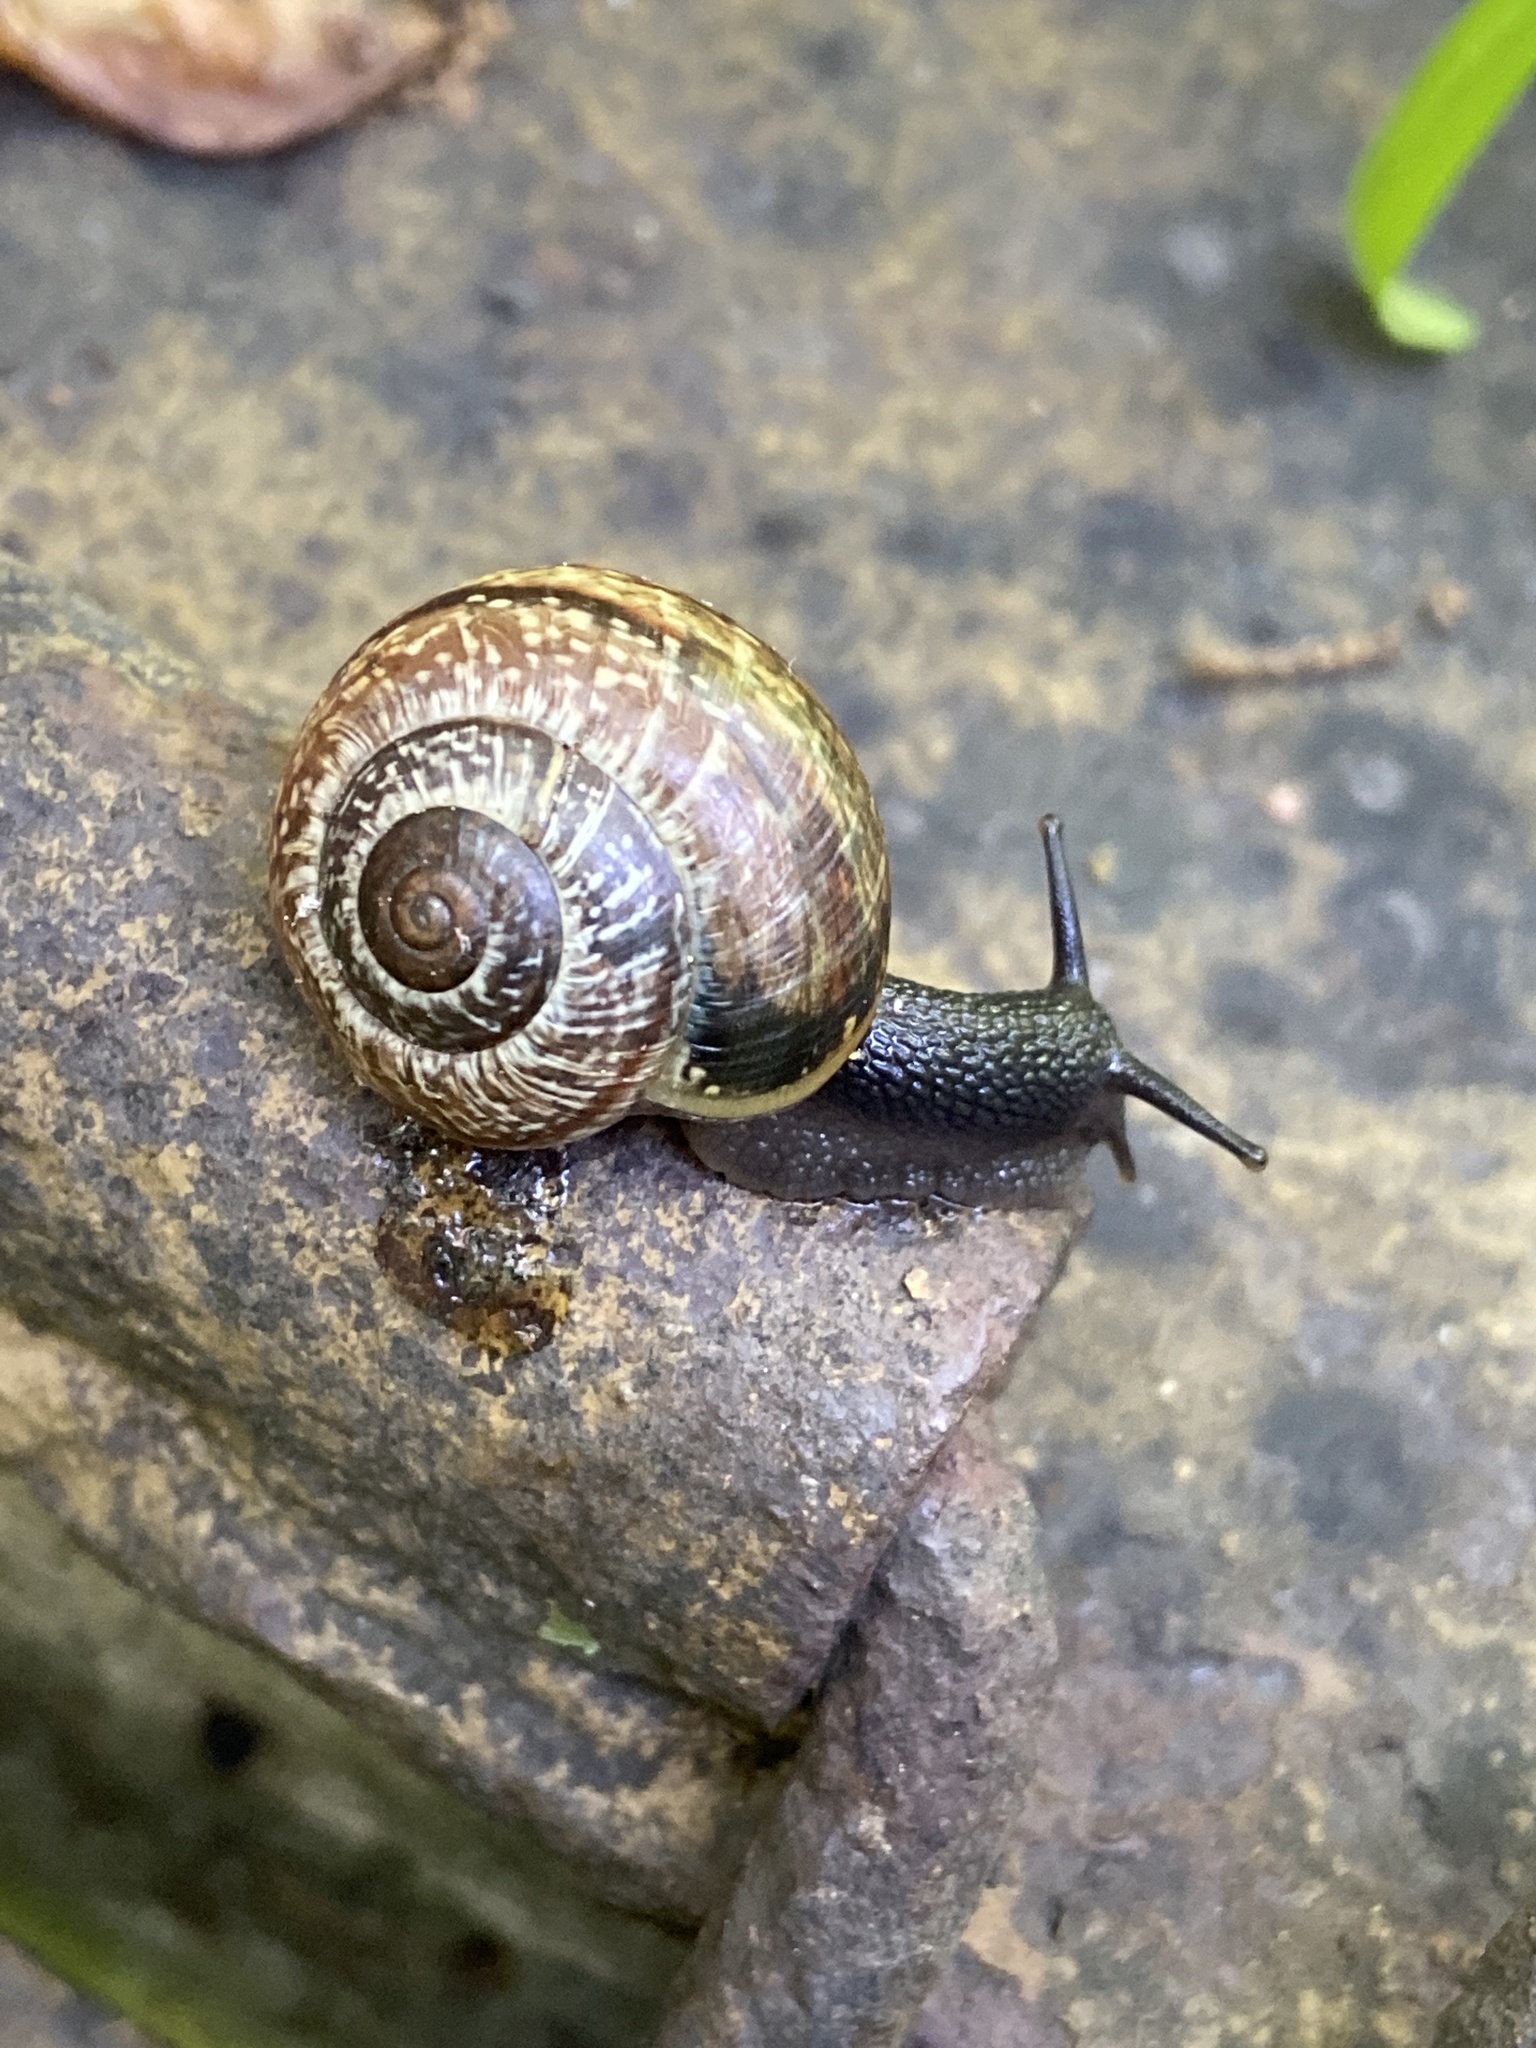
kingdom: Animalia
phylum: Mollusca
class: Gastropoda
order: Stylommatophora
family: Helicidae
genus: Arianta
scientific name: Arianta arbustorum
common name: Copse snail
